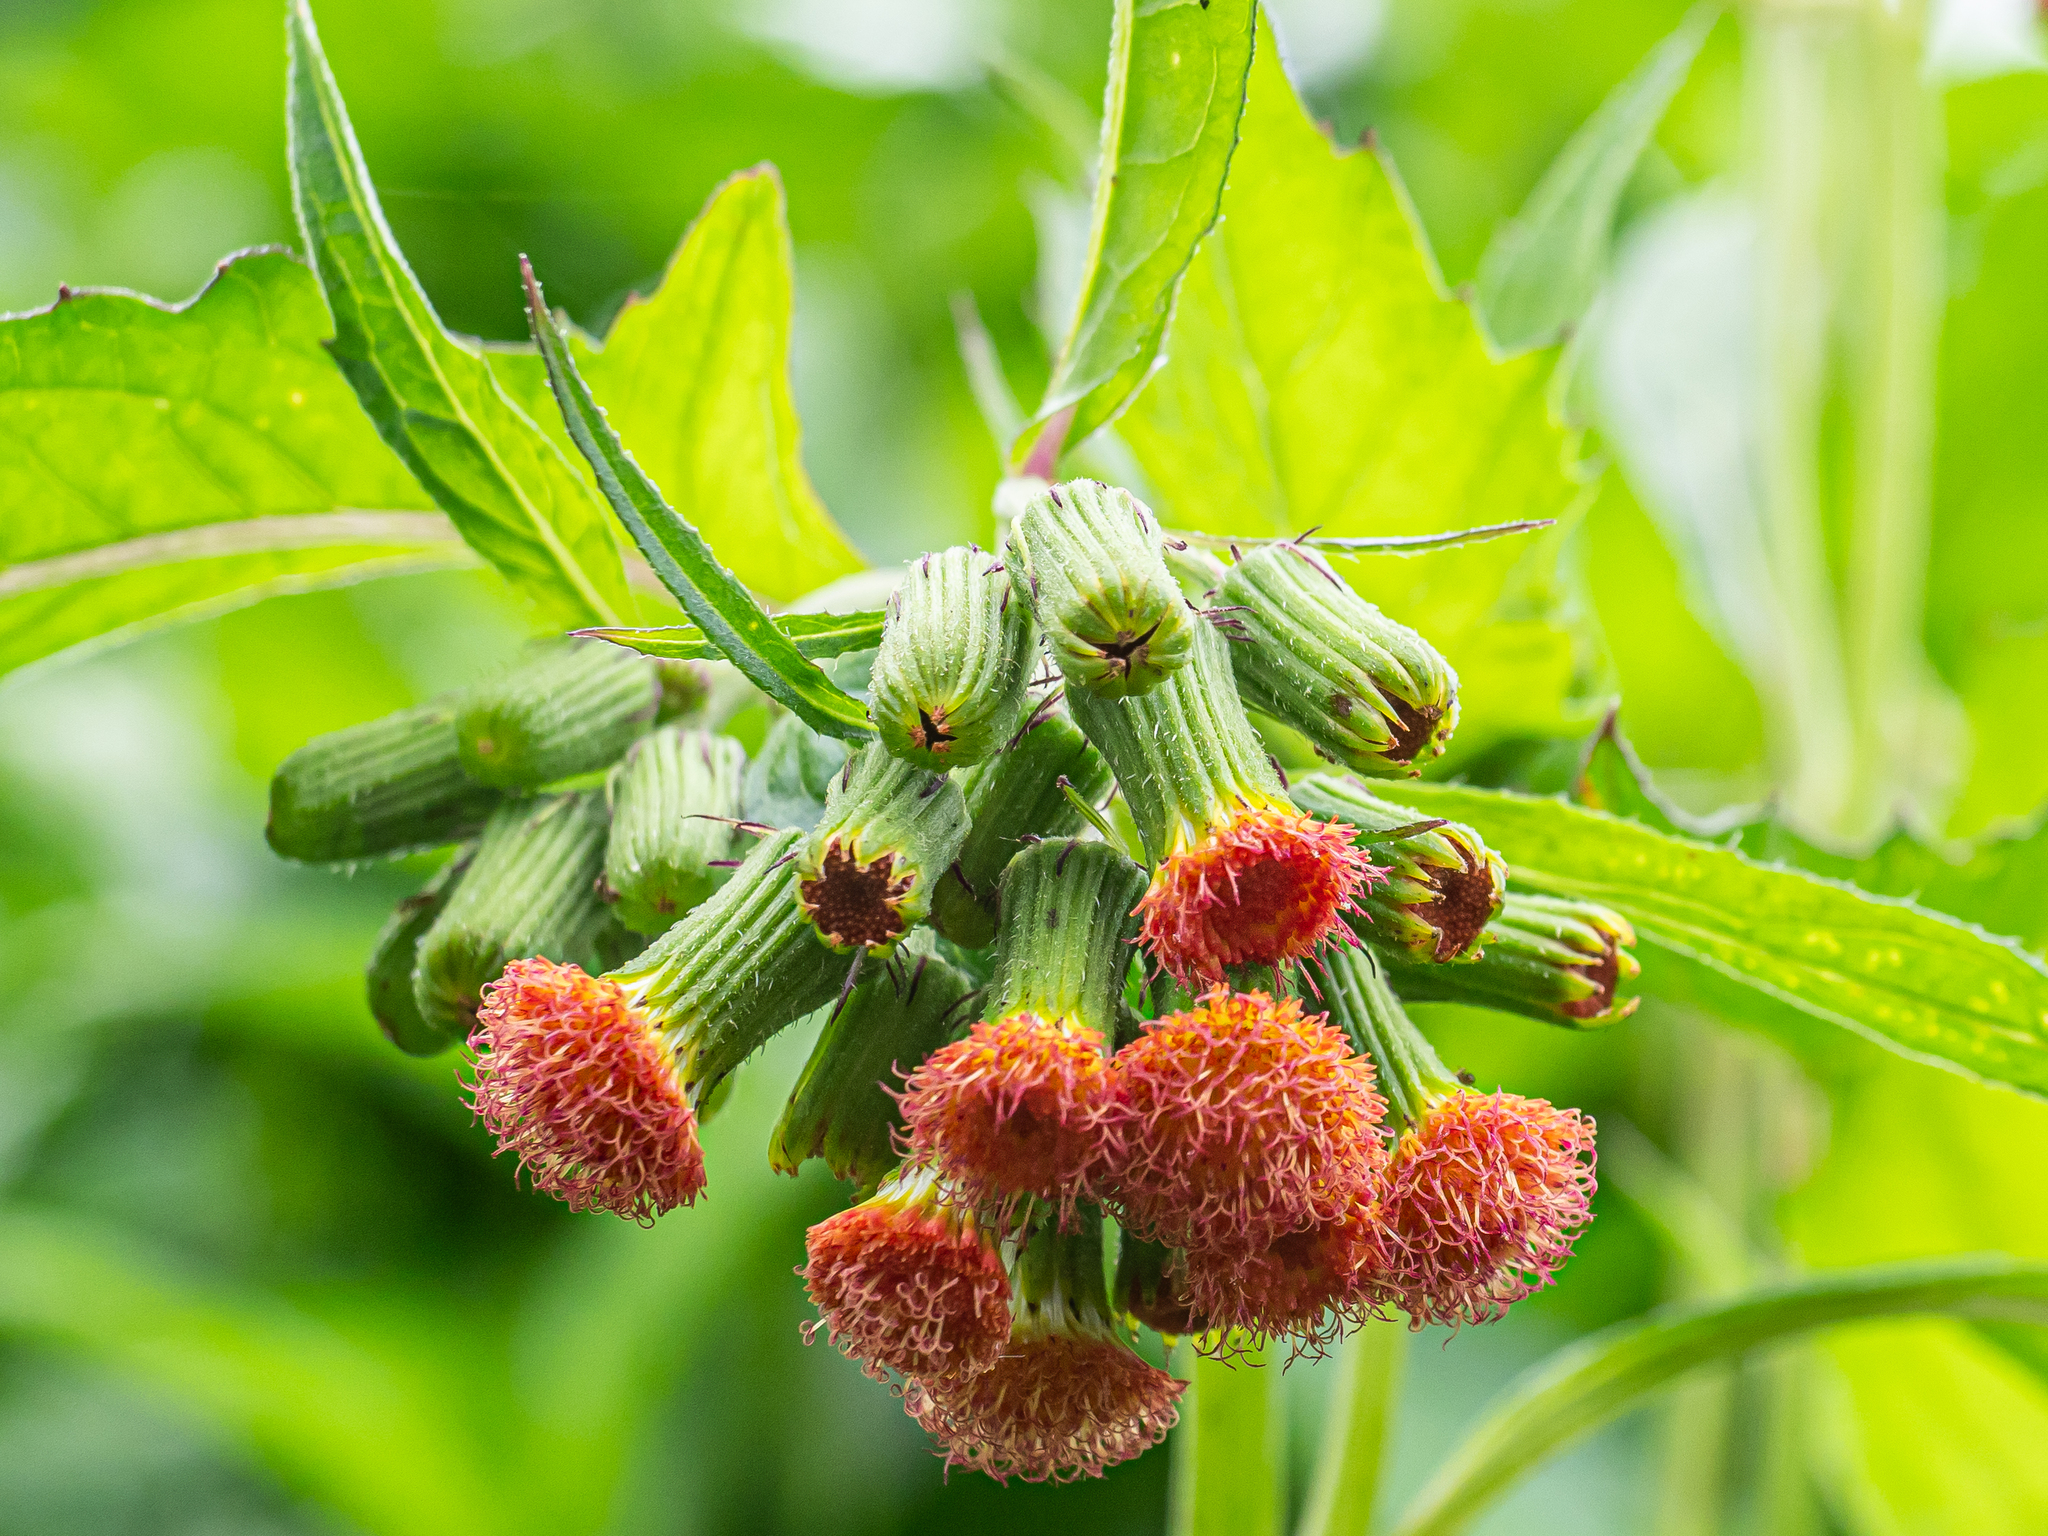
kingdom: Plantae
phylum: Tracheophyta
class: Magnoliopsida
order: Asterales
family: Asteraceae
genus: Crassocephalum
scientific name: Crassocephalum crepidioides
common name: Redflower ragleaf
